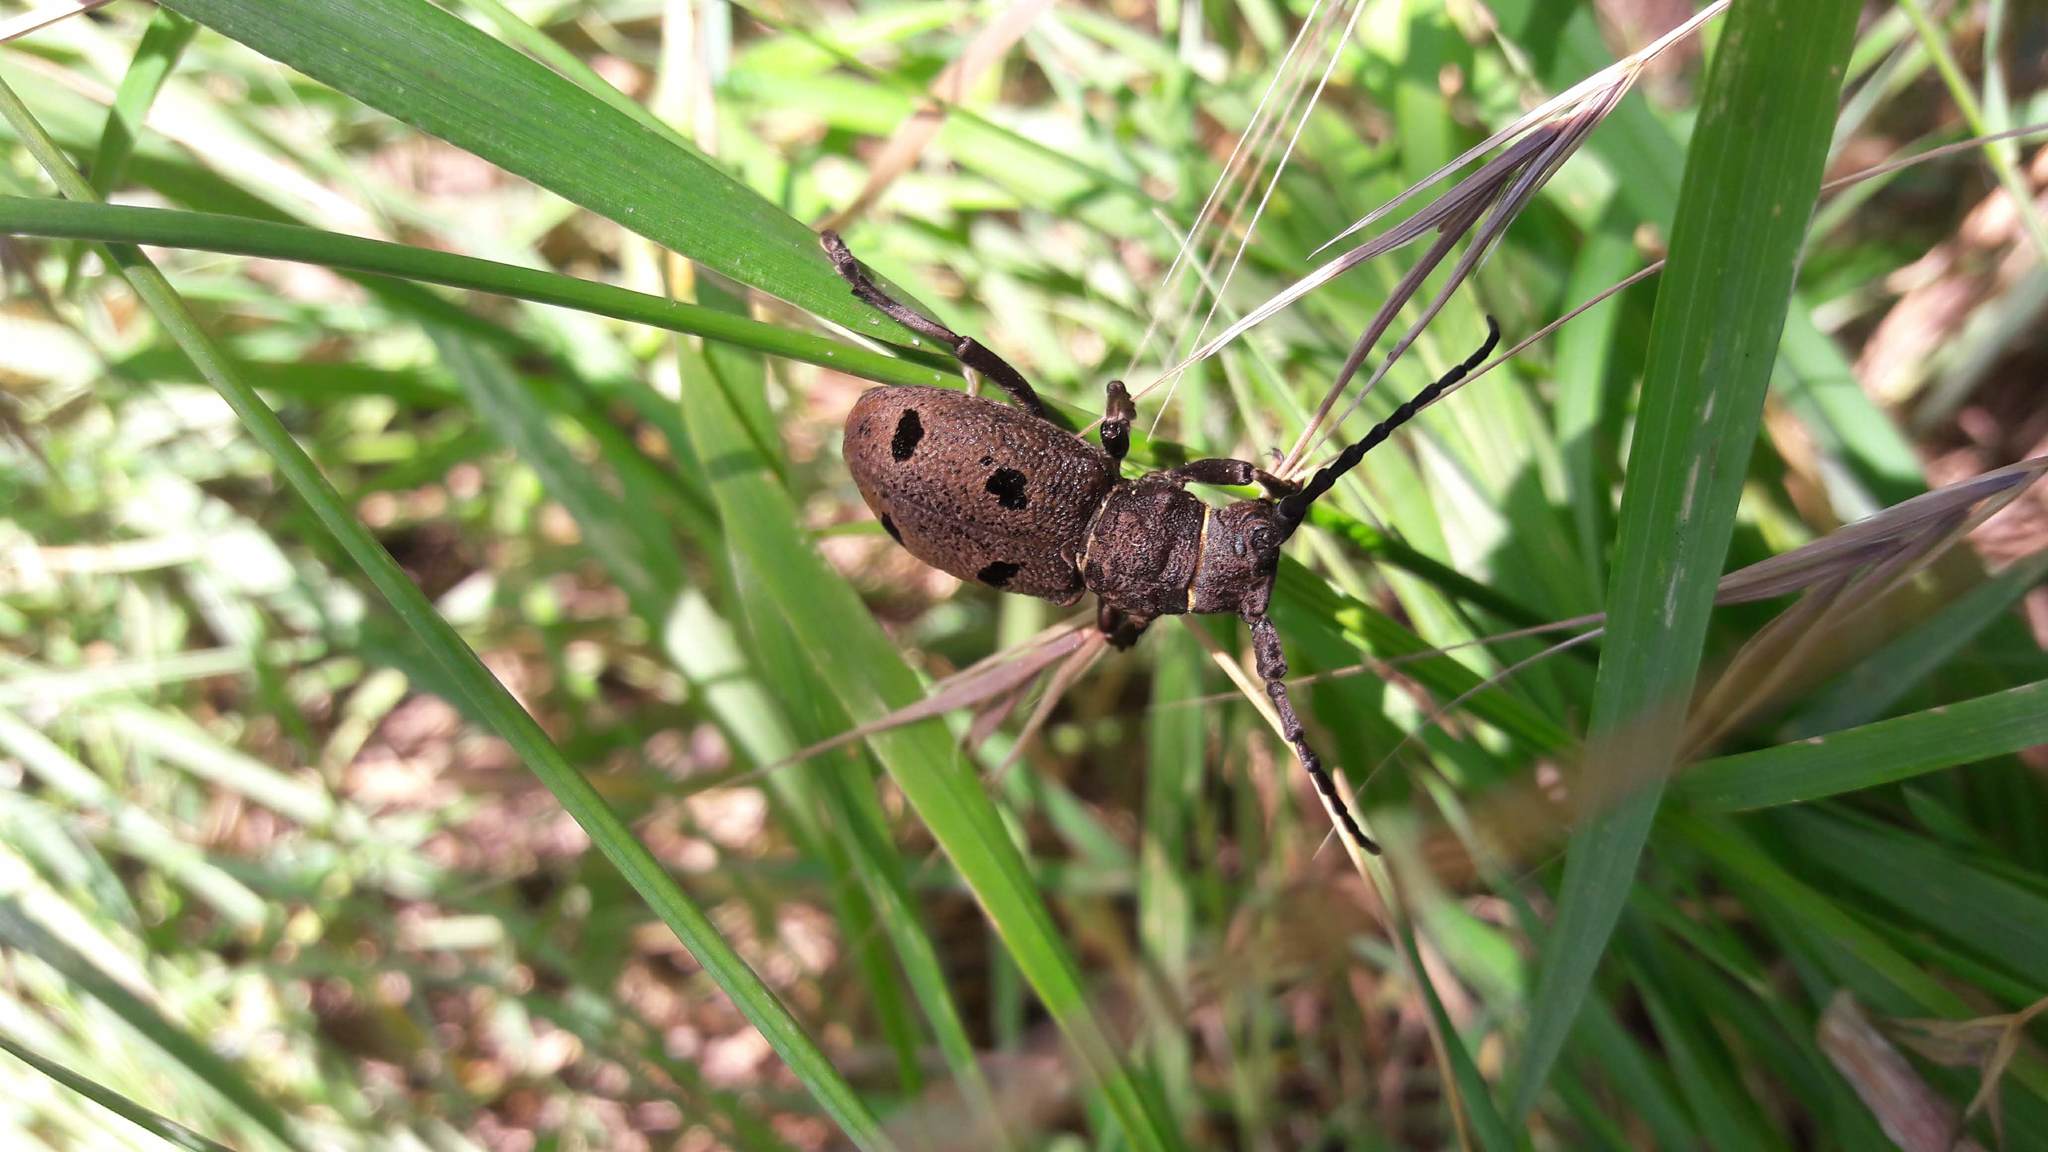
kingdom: Animalia
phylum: Arthropoda
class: Insecta
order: Coleoptera
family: Cerambycidae
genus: Herophila
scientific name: Herophila tristis
